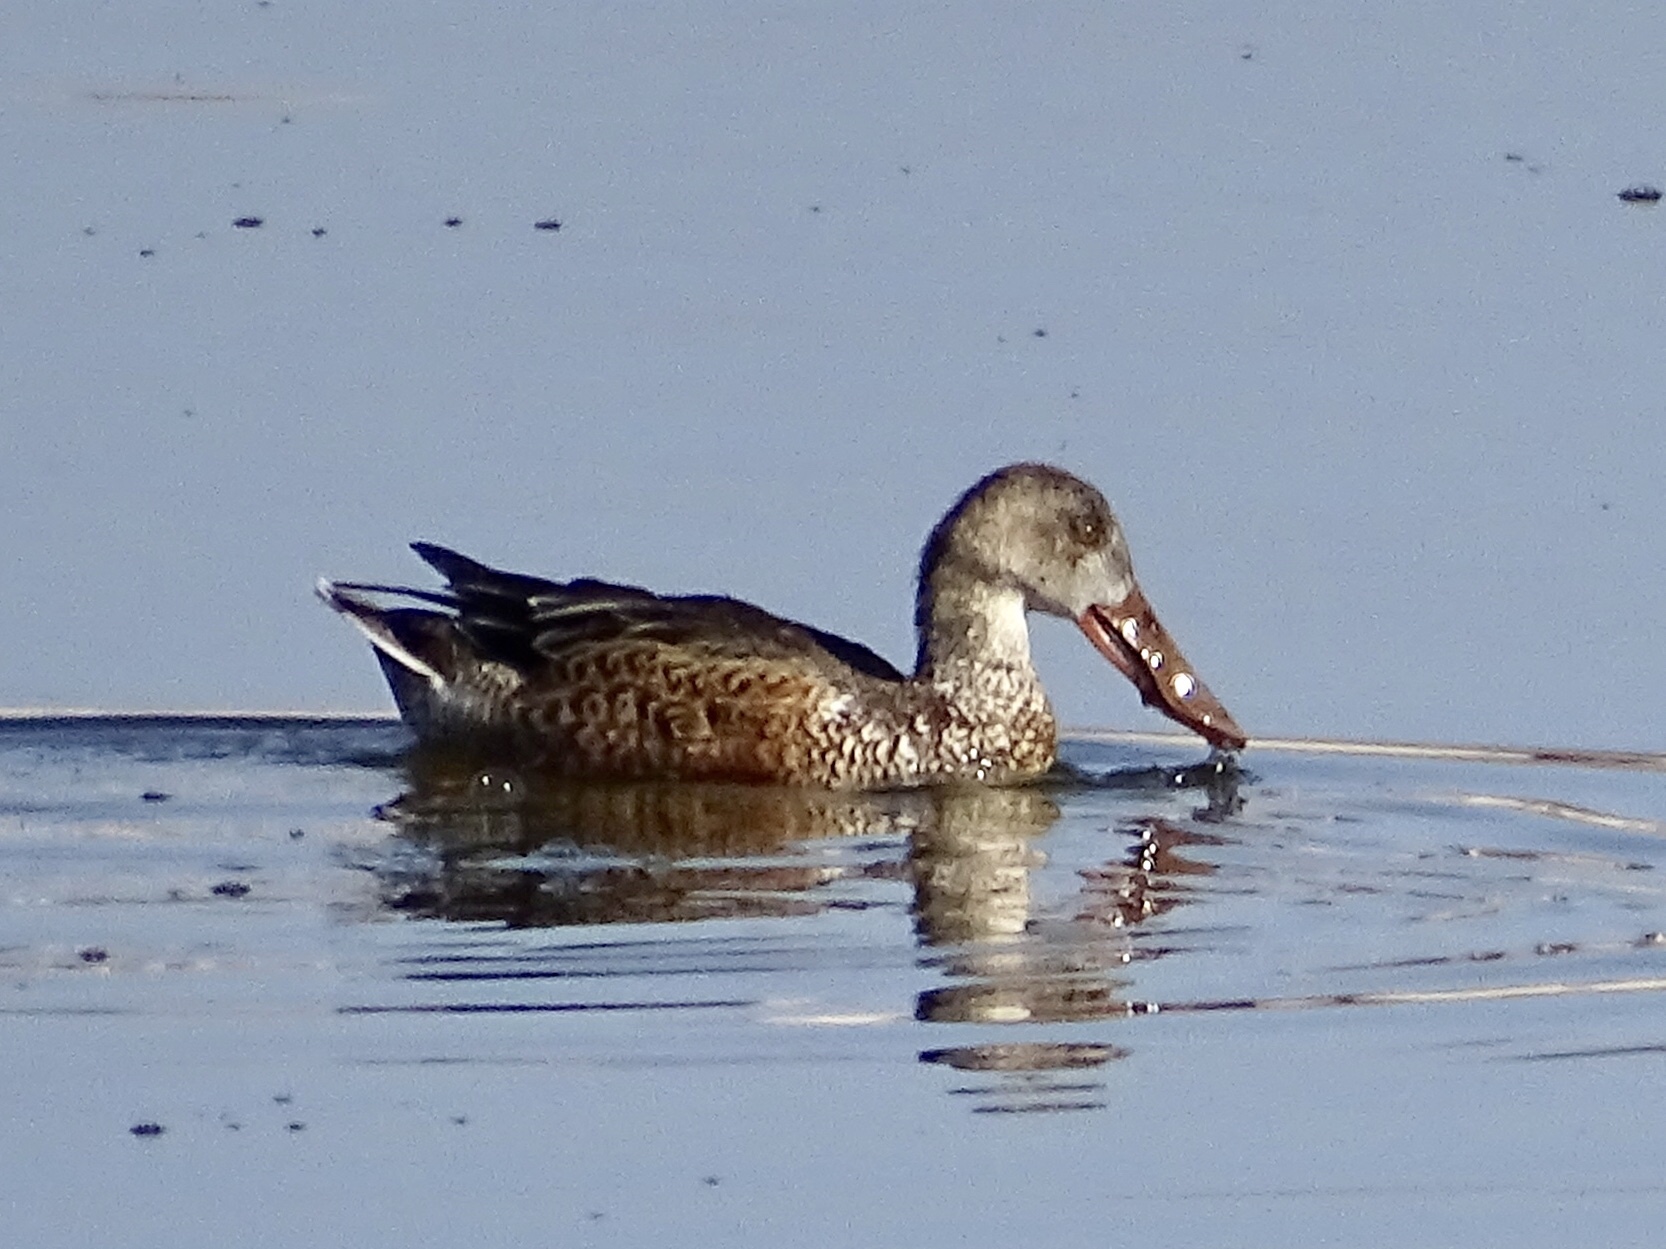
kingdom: Animalia
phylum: Chordata
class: Aves
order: Anseriformes
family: Anatidae
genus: Spatula
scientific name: Spatula clypeata
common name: Northern shoveler
